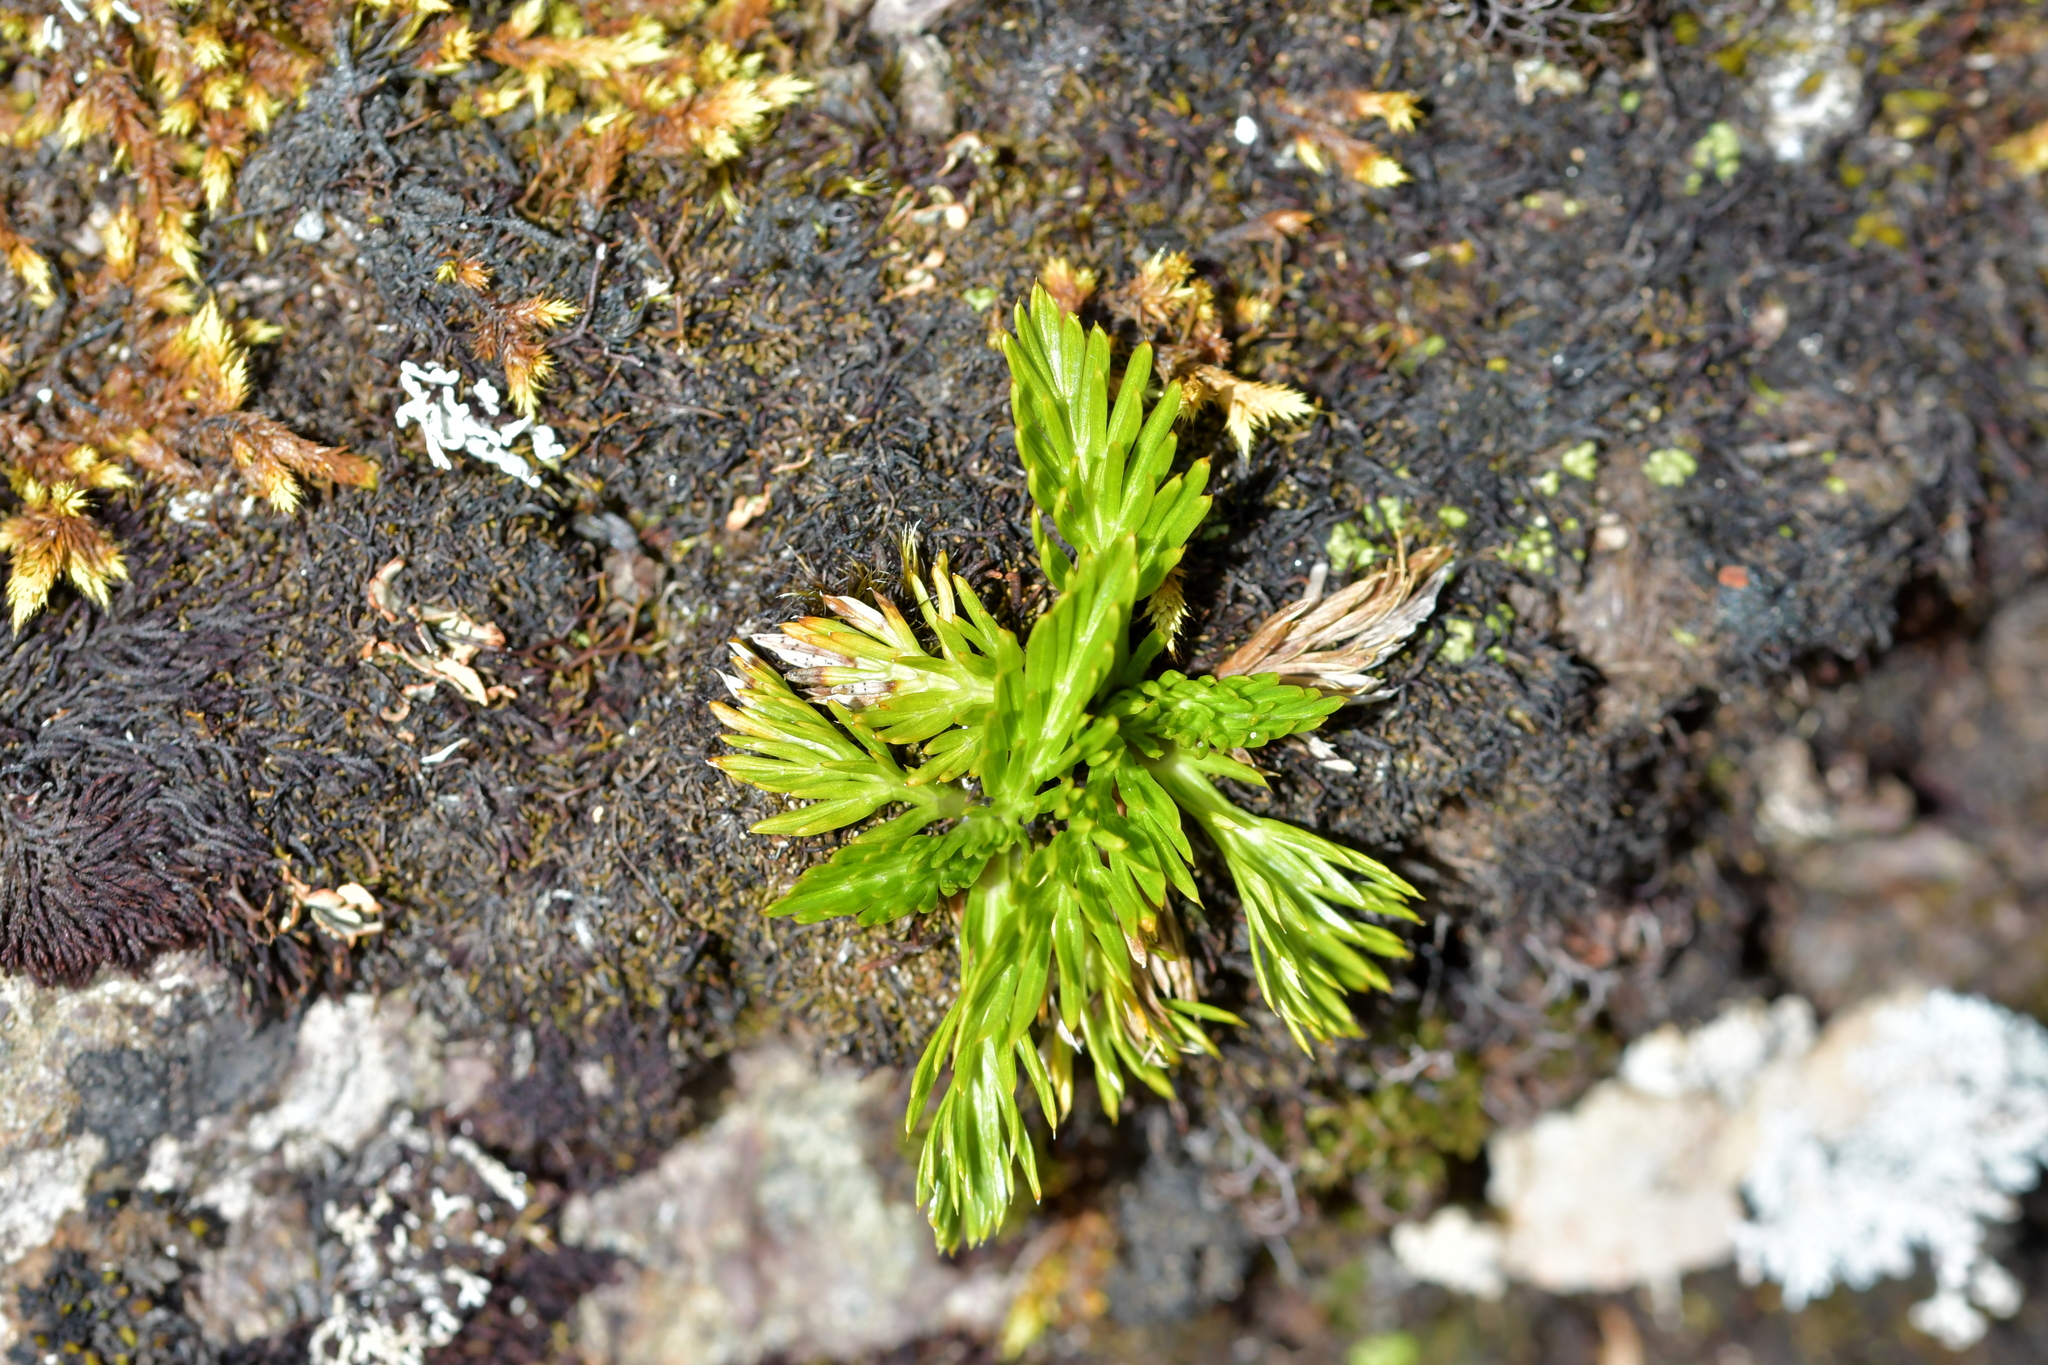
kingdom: Plantae
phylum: Tracheophyta
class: Magnoliopsida
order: Apiales
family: Apiaceae
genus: Aciphylla
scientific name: Aciphylla dissecta
